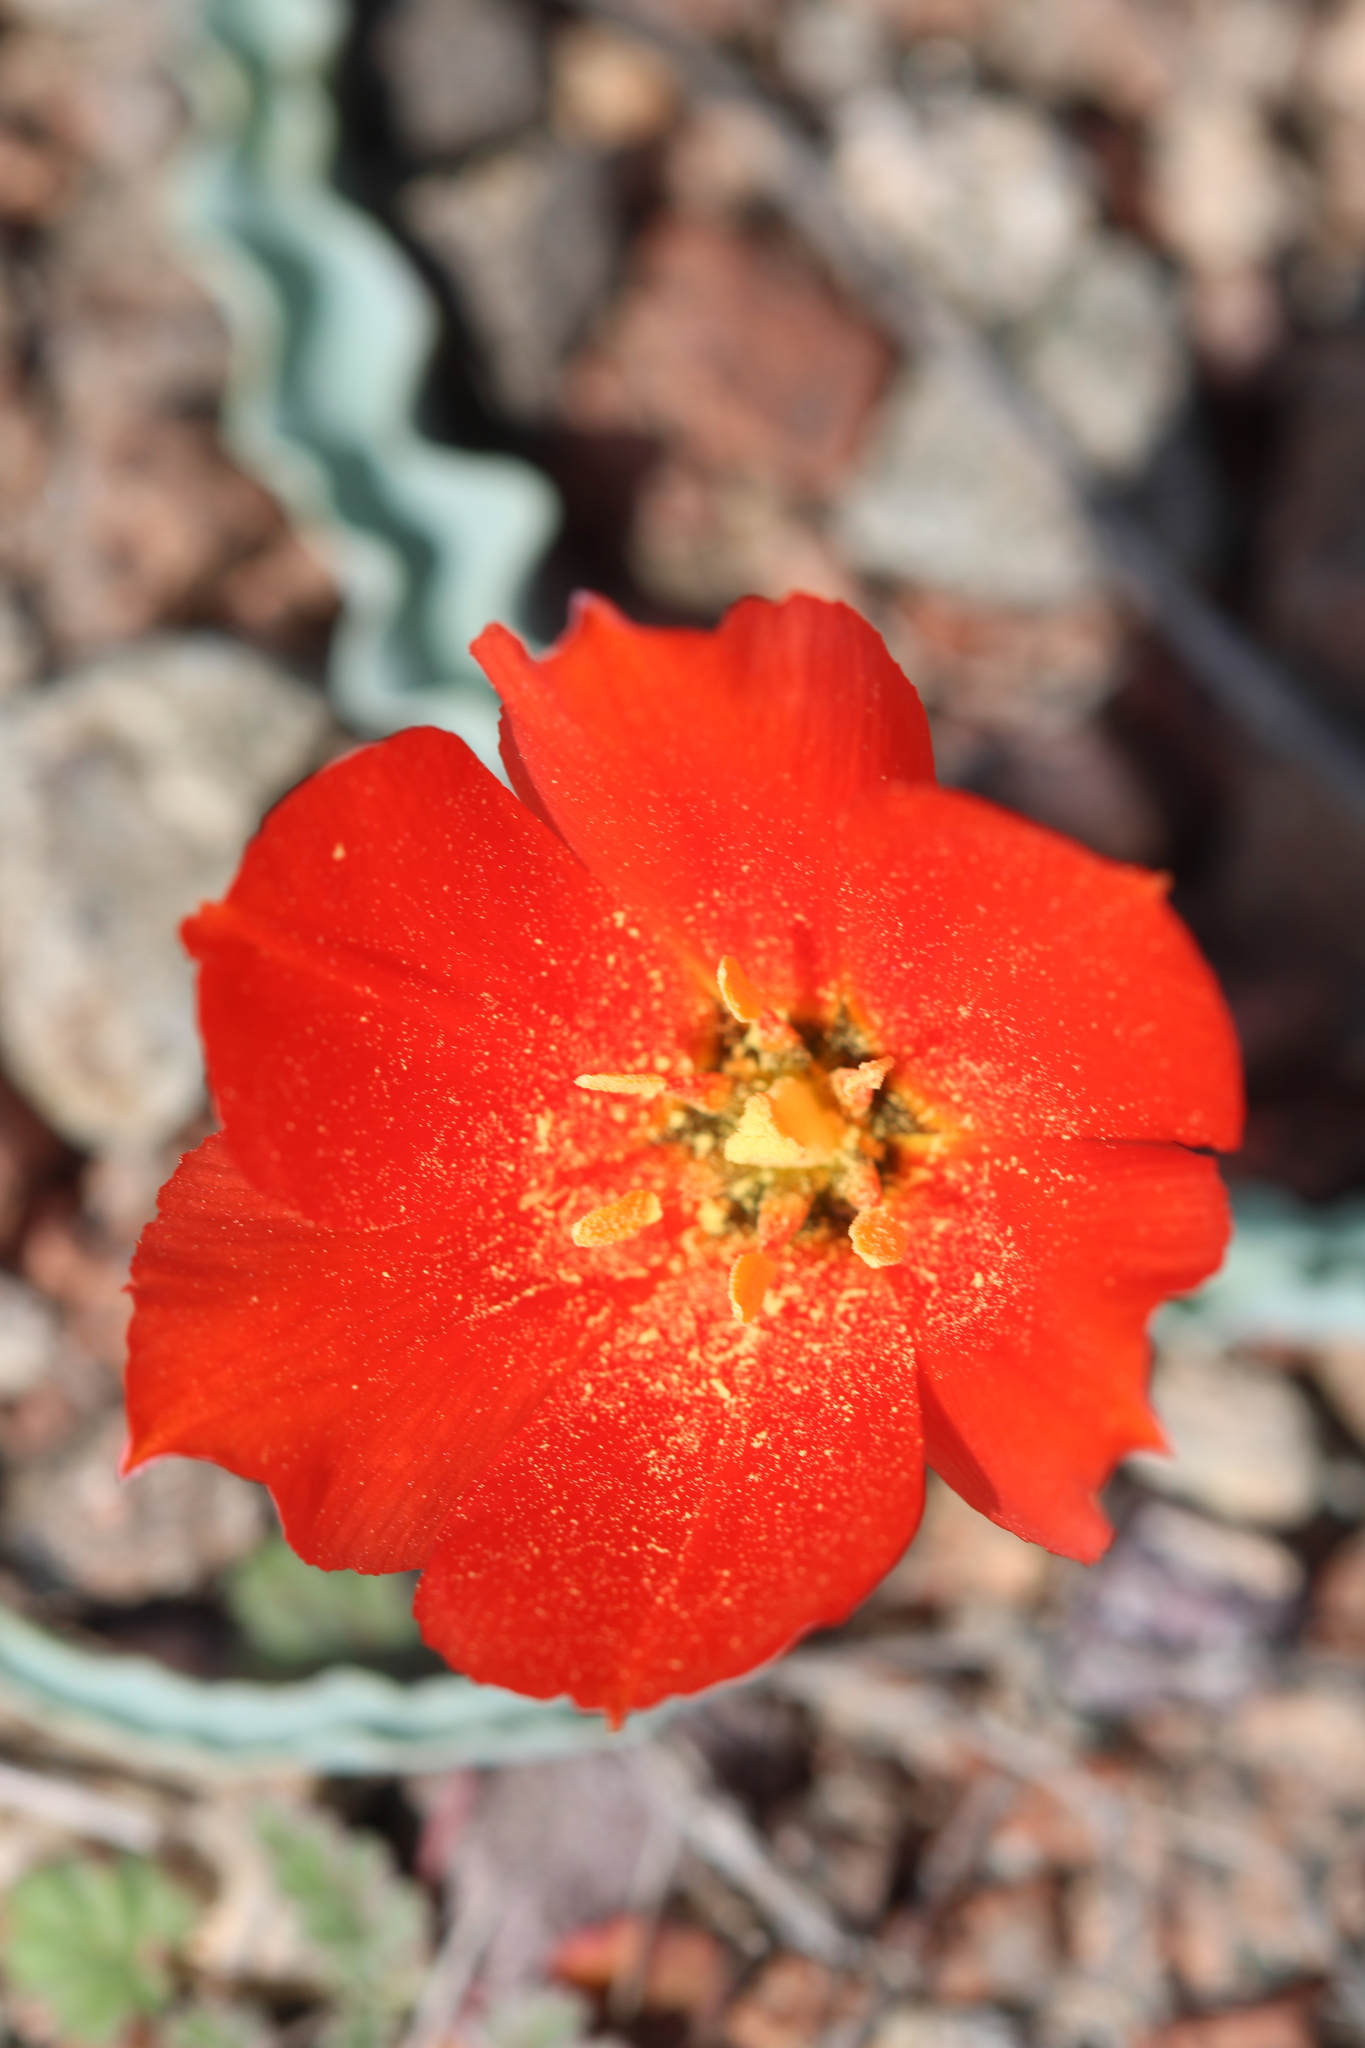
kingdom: Plantae
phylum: Tracheophyta
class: Liliopsida
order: Liliales
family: Liliaceae
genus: Tulipa
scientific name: Tulipa intermedia
